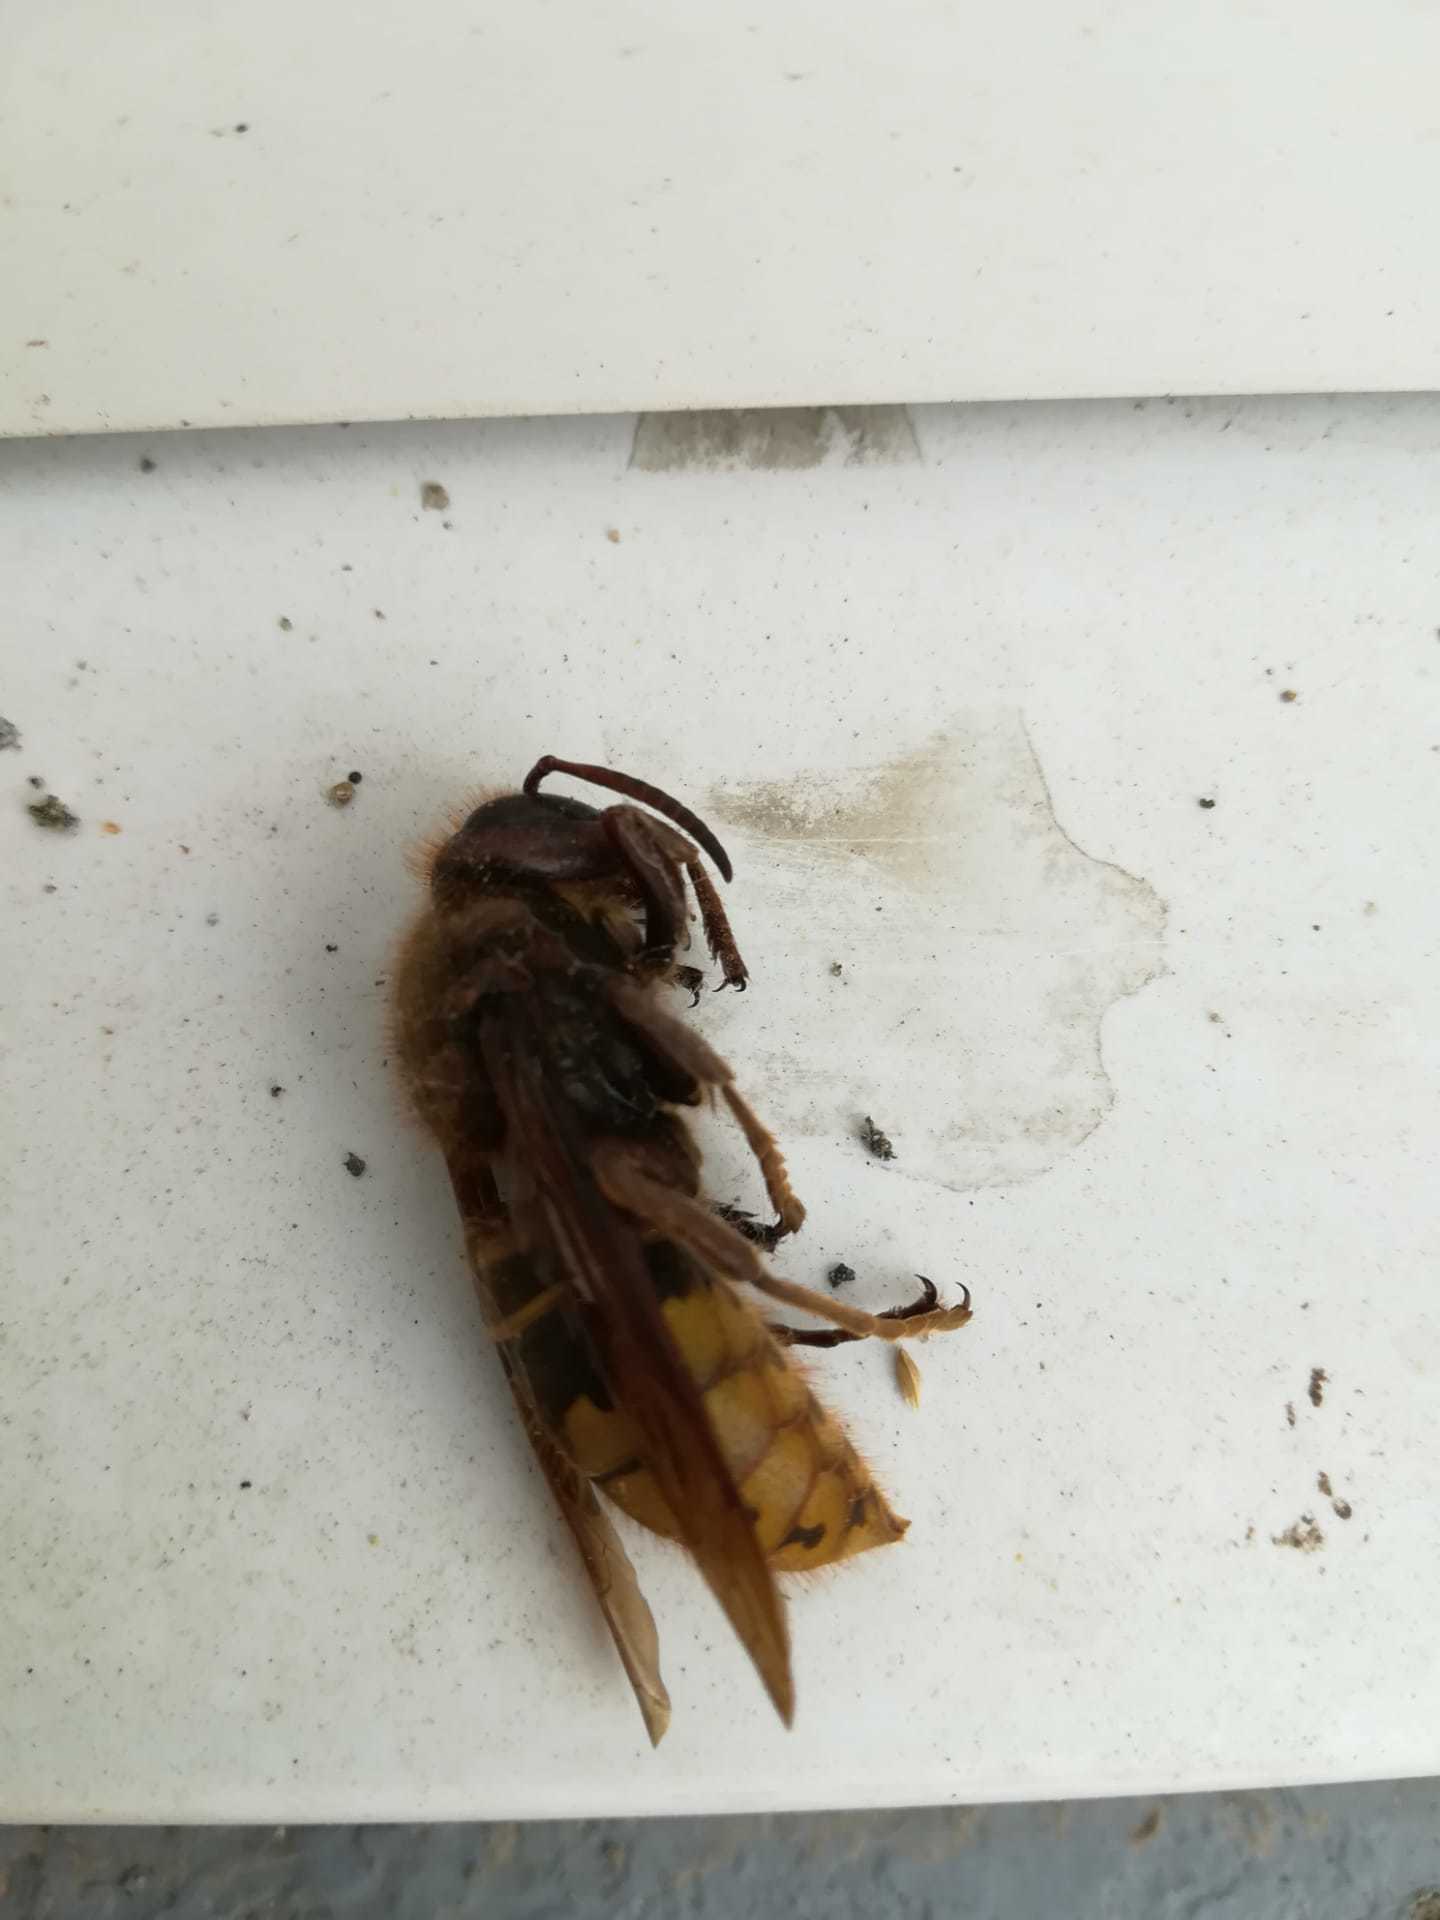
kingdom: Animalia
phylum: Arthropoda
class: Insecta
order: Hymenoptera
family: Vespidae
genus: Vespa
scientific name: Vespa crabro
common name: Hornet
